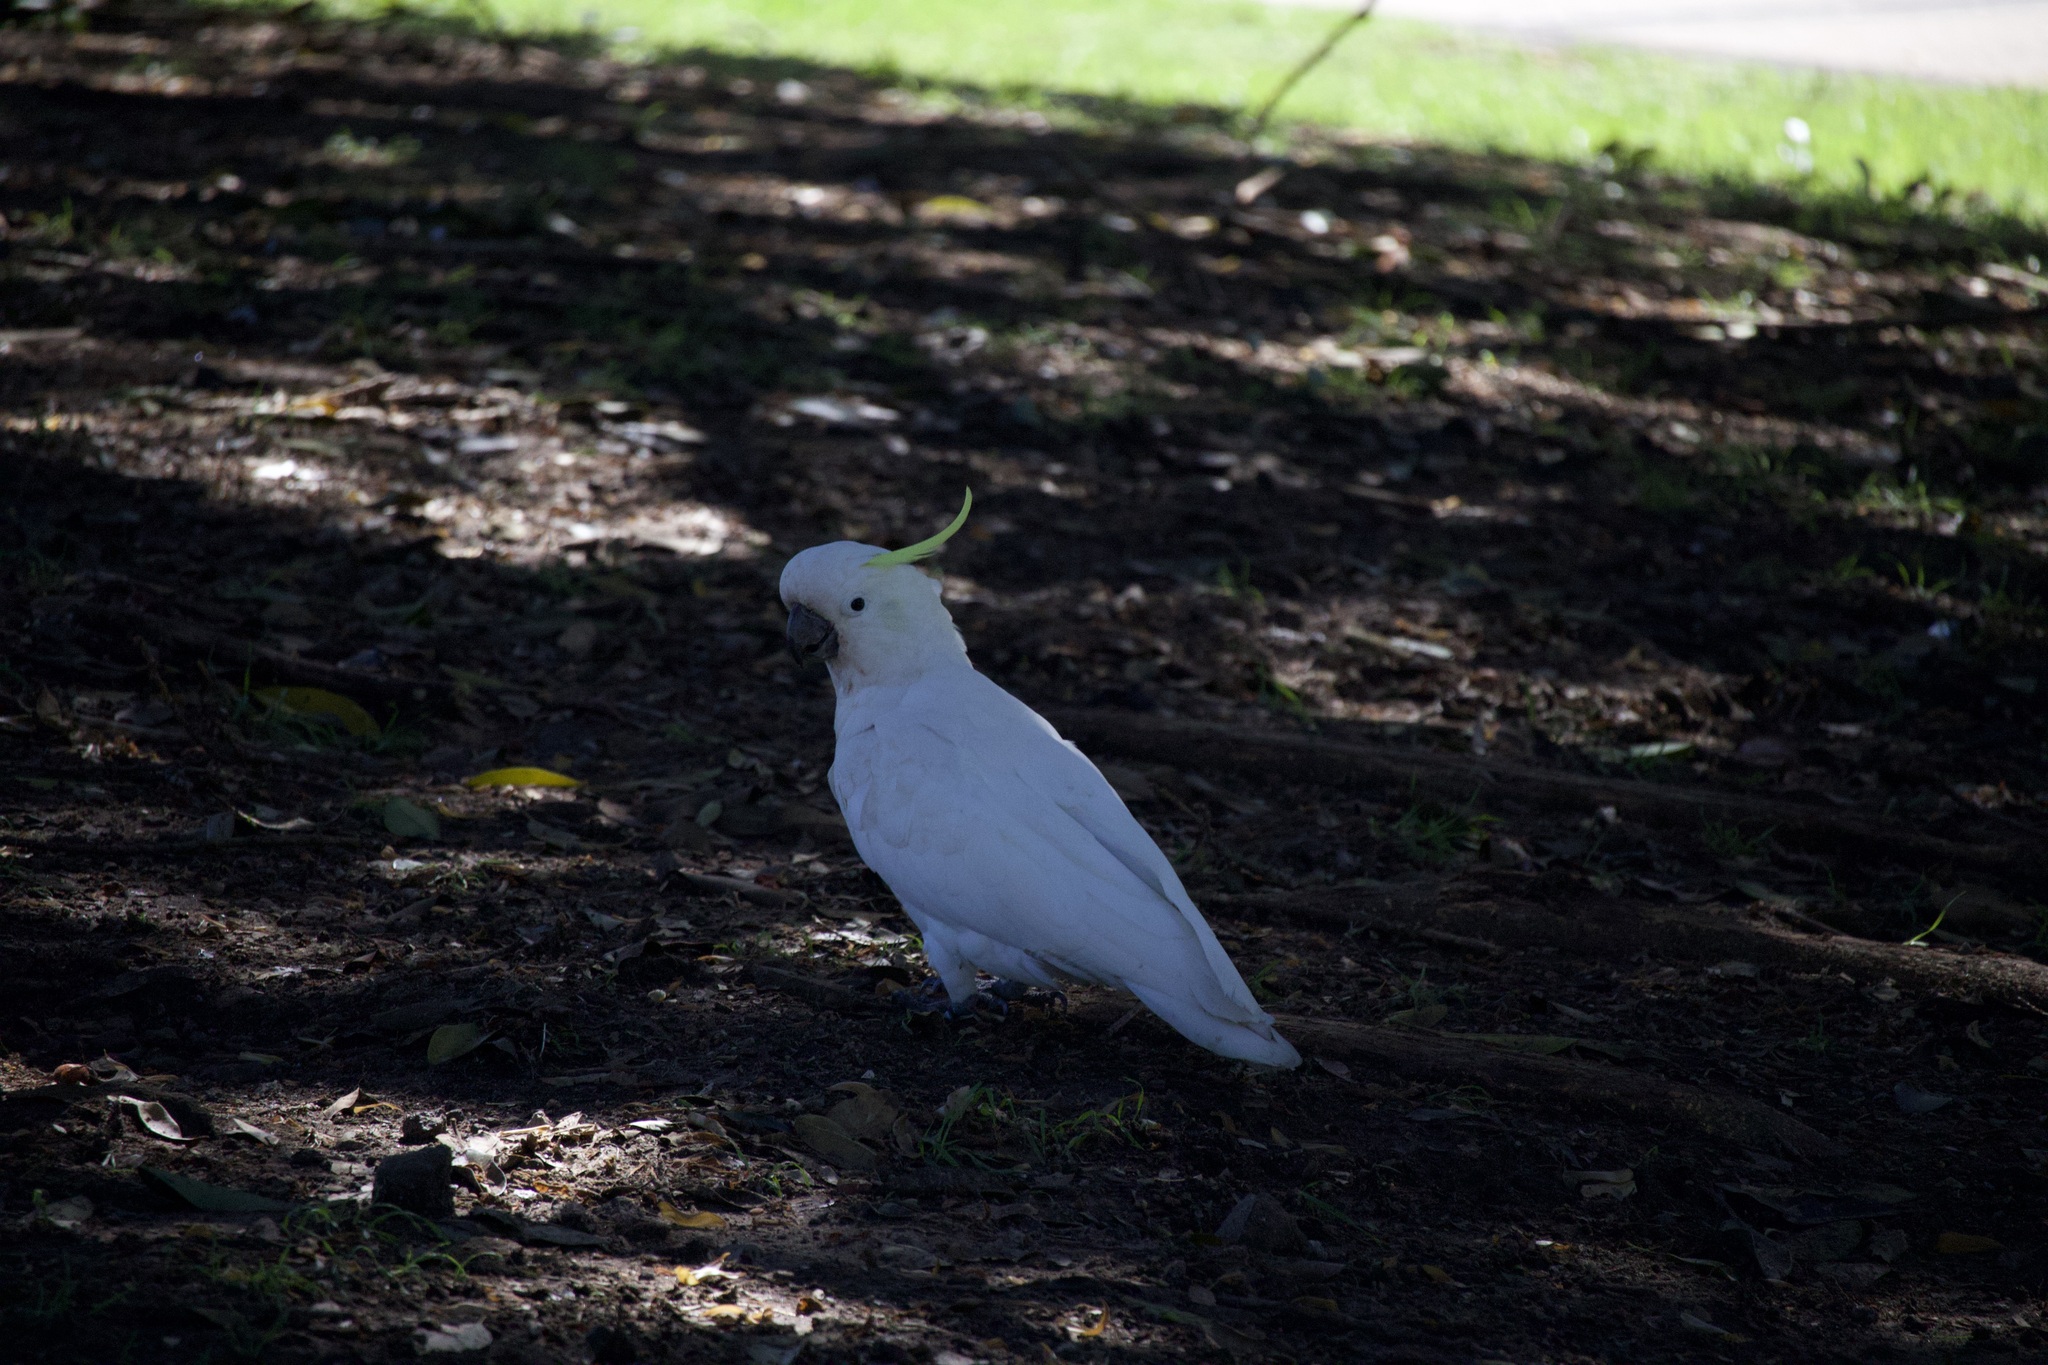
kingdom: Animalia
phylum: Chordata
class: Aves
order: Psittaciformes
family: Psittacidae
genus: Cacatua
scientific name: Cacatua galerita
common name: Sulphur-crested cockatoo
